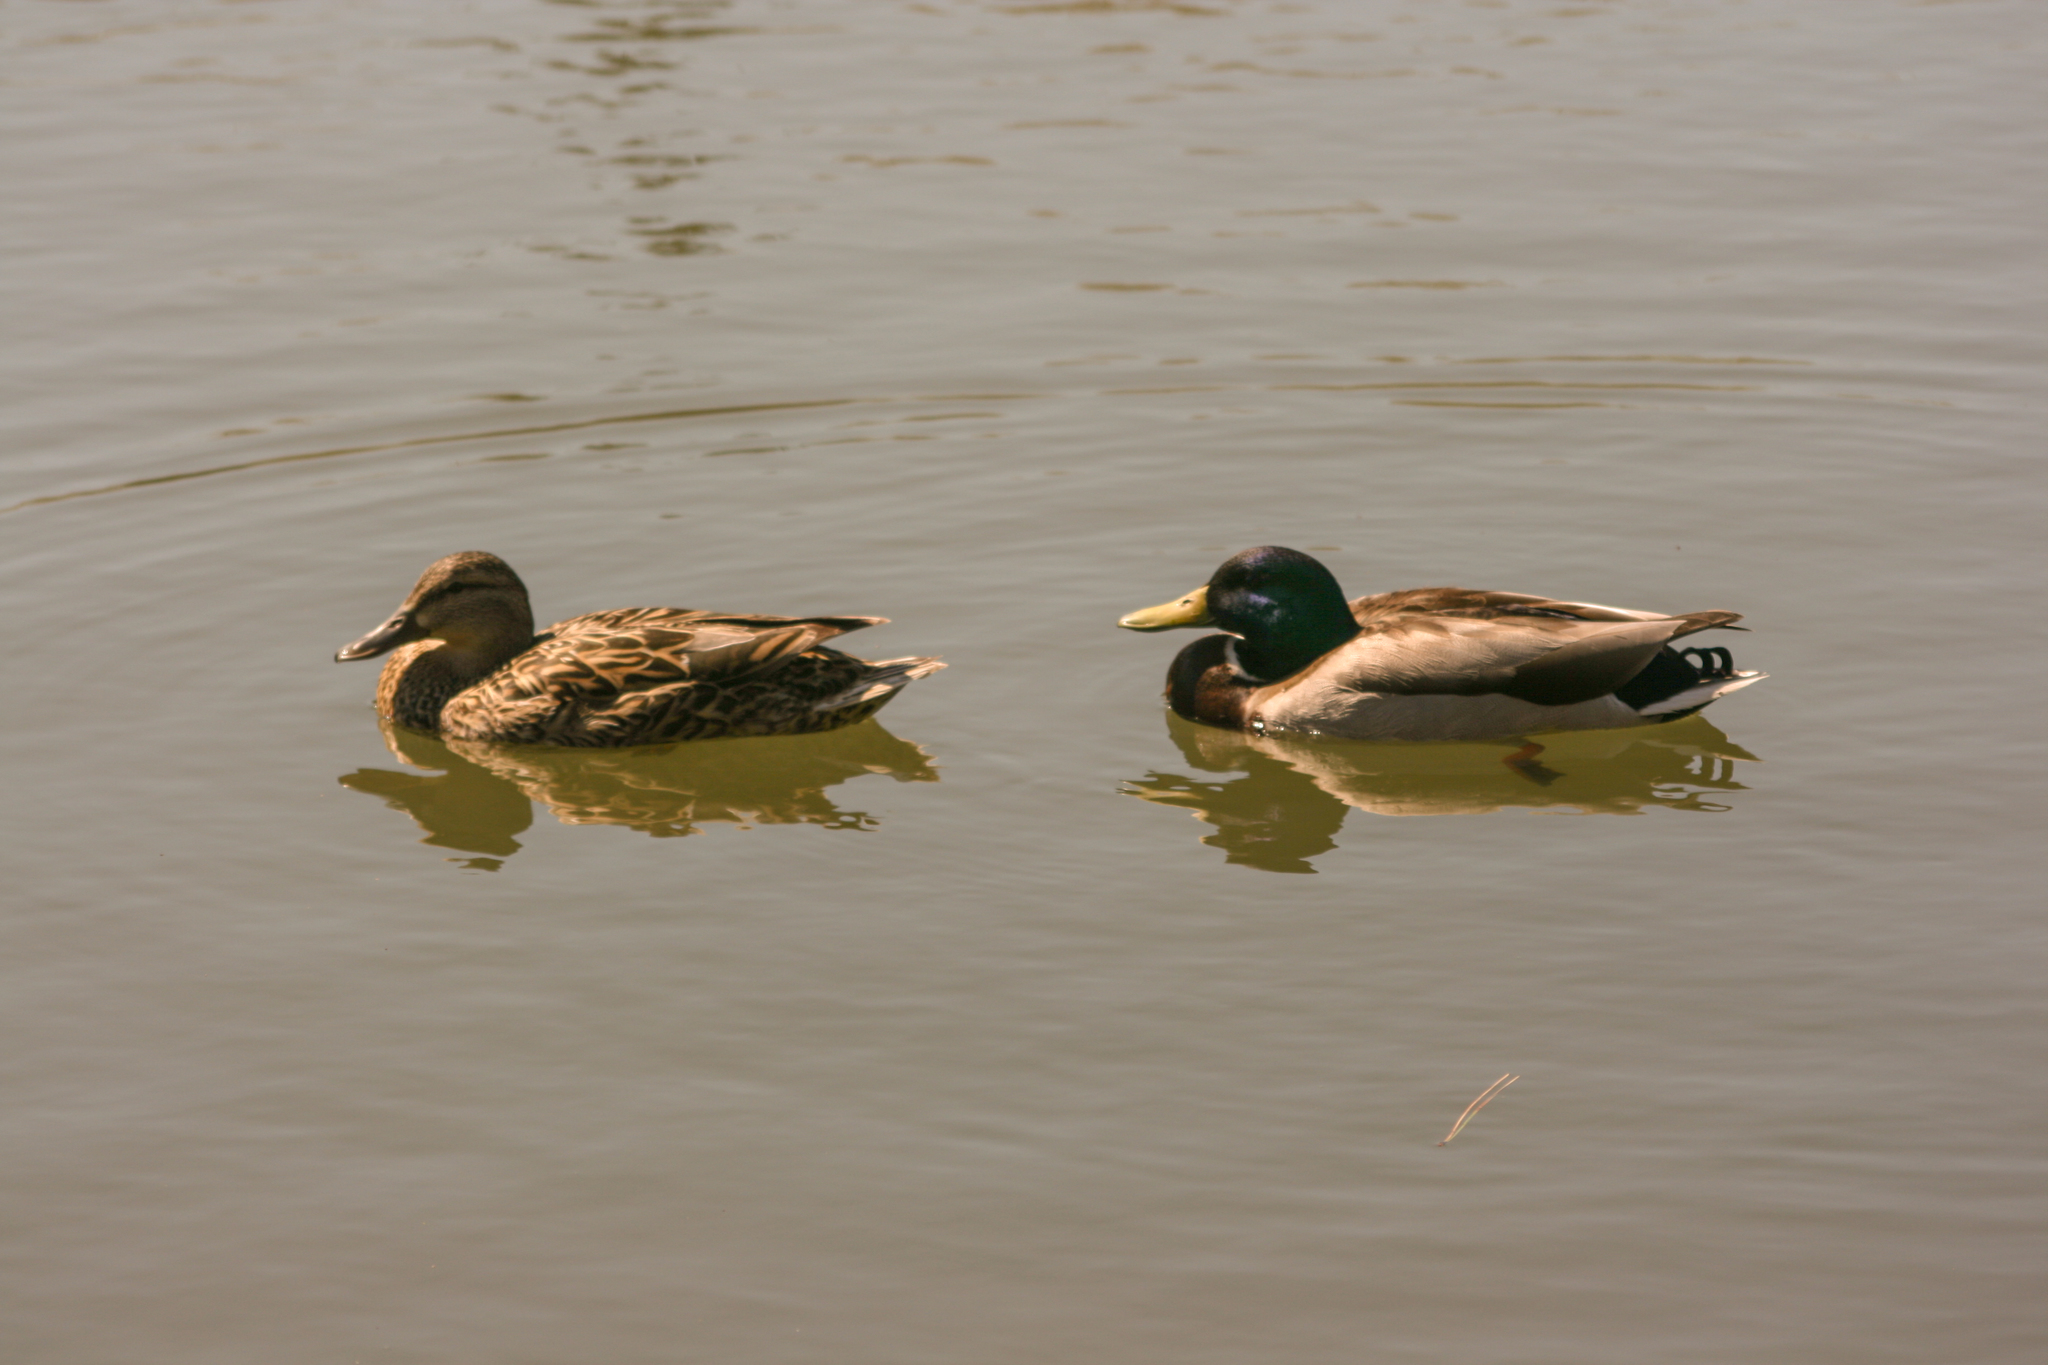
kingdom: Animalia
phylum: Chordata
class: Aves
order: Anseriformes
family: Anatidae
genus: Anas
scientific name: Anas platyrhynchos
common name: Mallard
